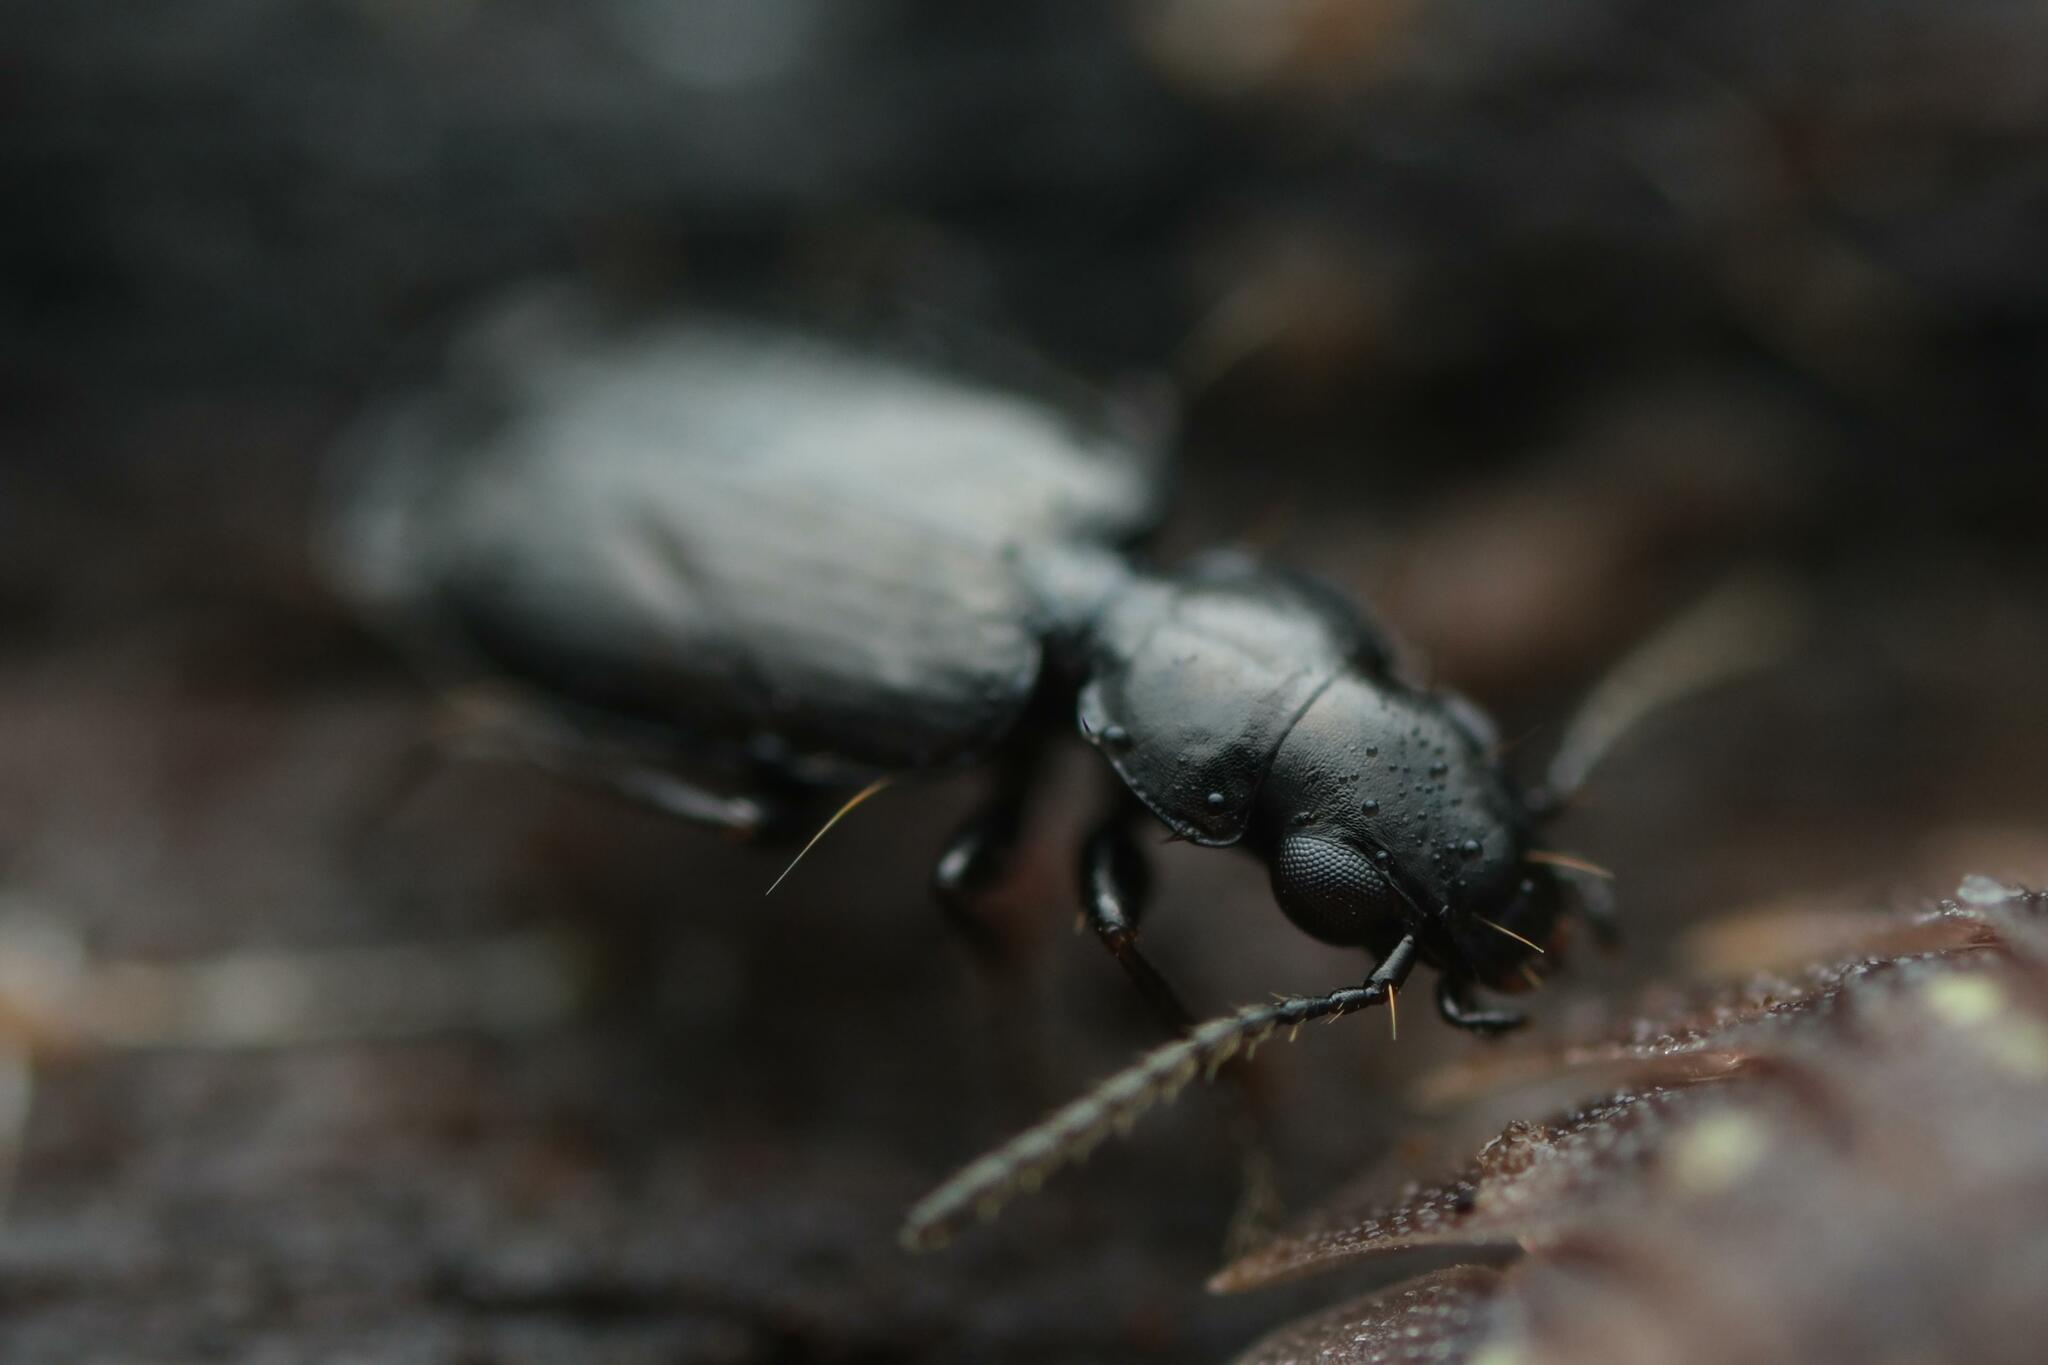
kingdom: Animalia
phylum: Arthropoda
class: Insecta
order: Coleoptera
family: Carabidae
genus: Syntomus
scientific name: Syntomus truncatellus
